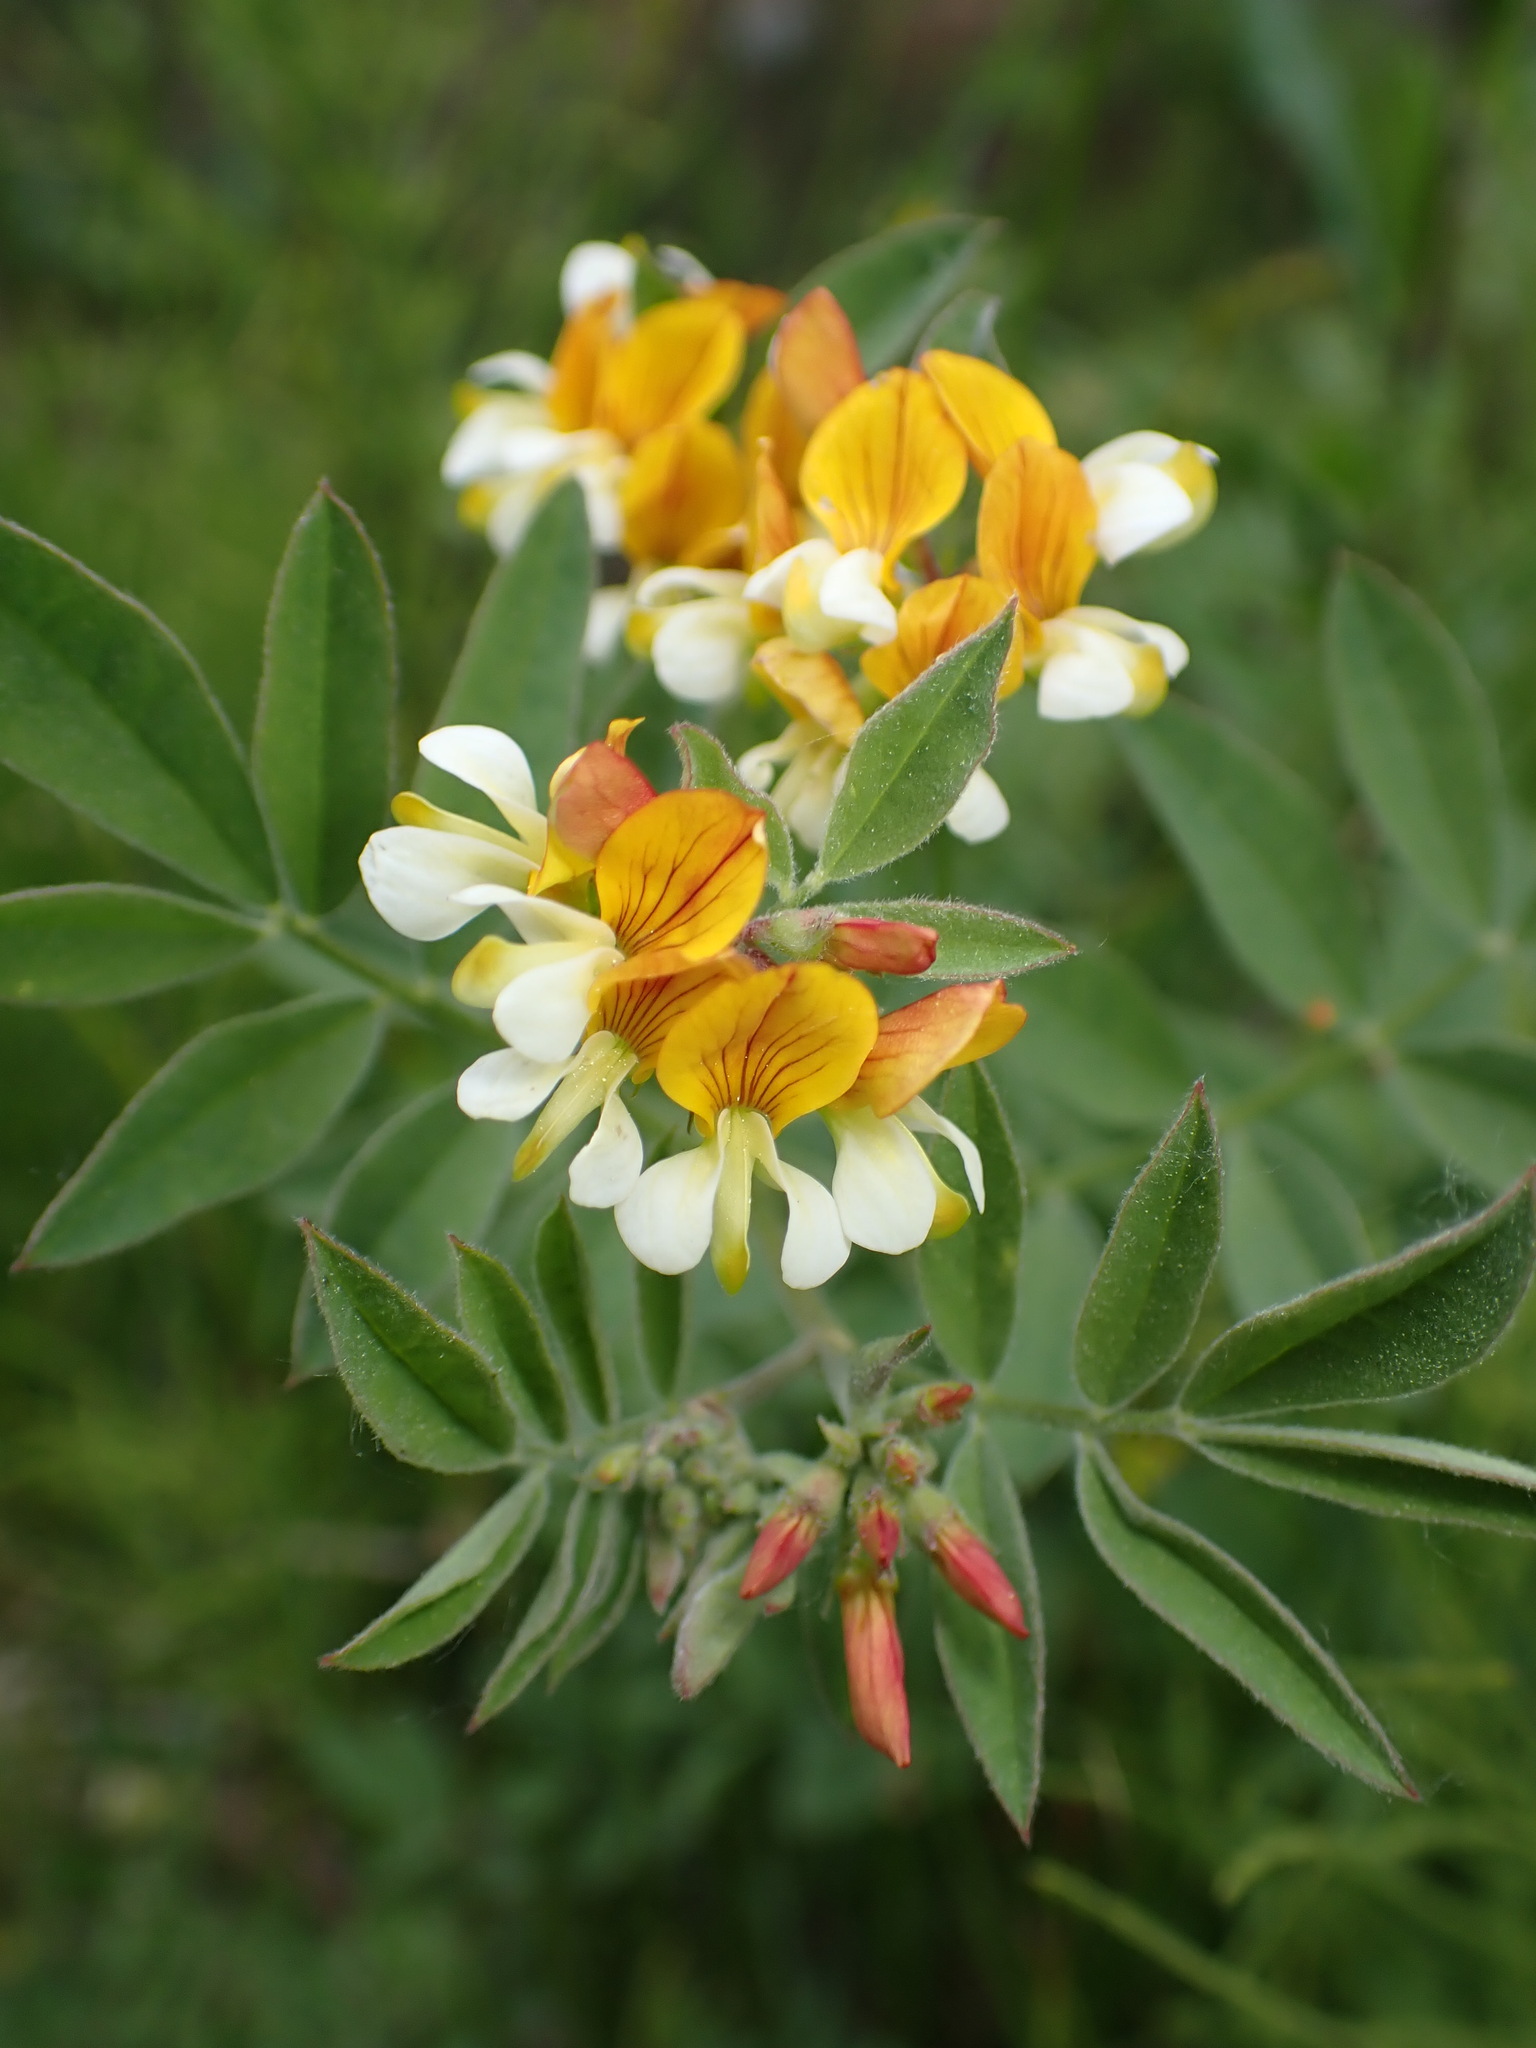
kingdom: Plantae
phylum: Tracheophyta
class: Magnoliopsida
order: Fabales
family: Fabaceae
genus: Hosackia
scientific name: Hosackia oblongifolia
